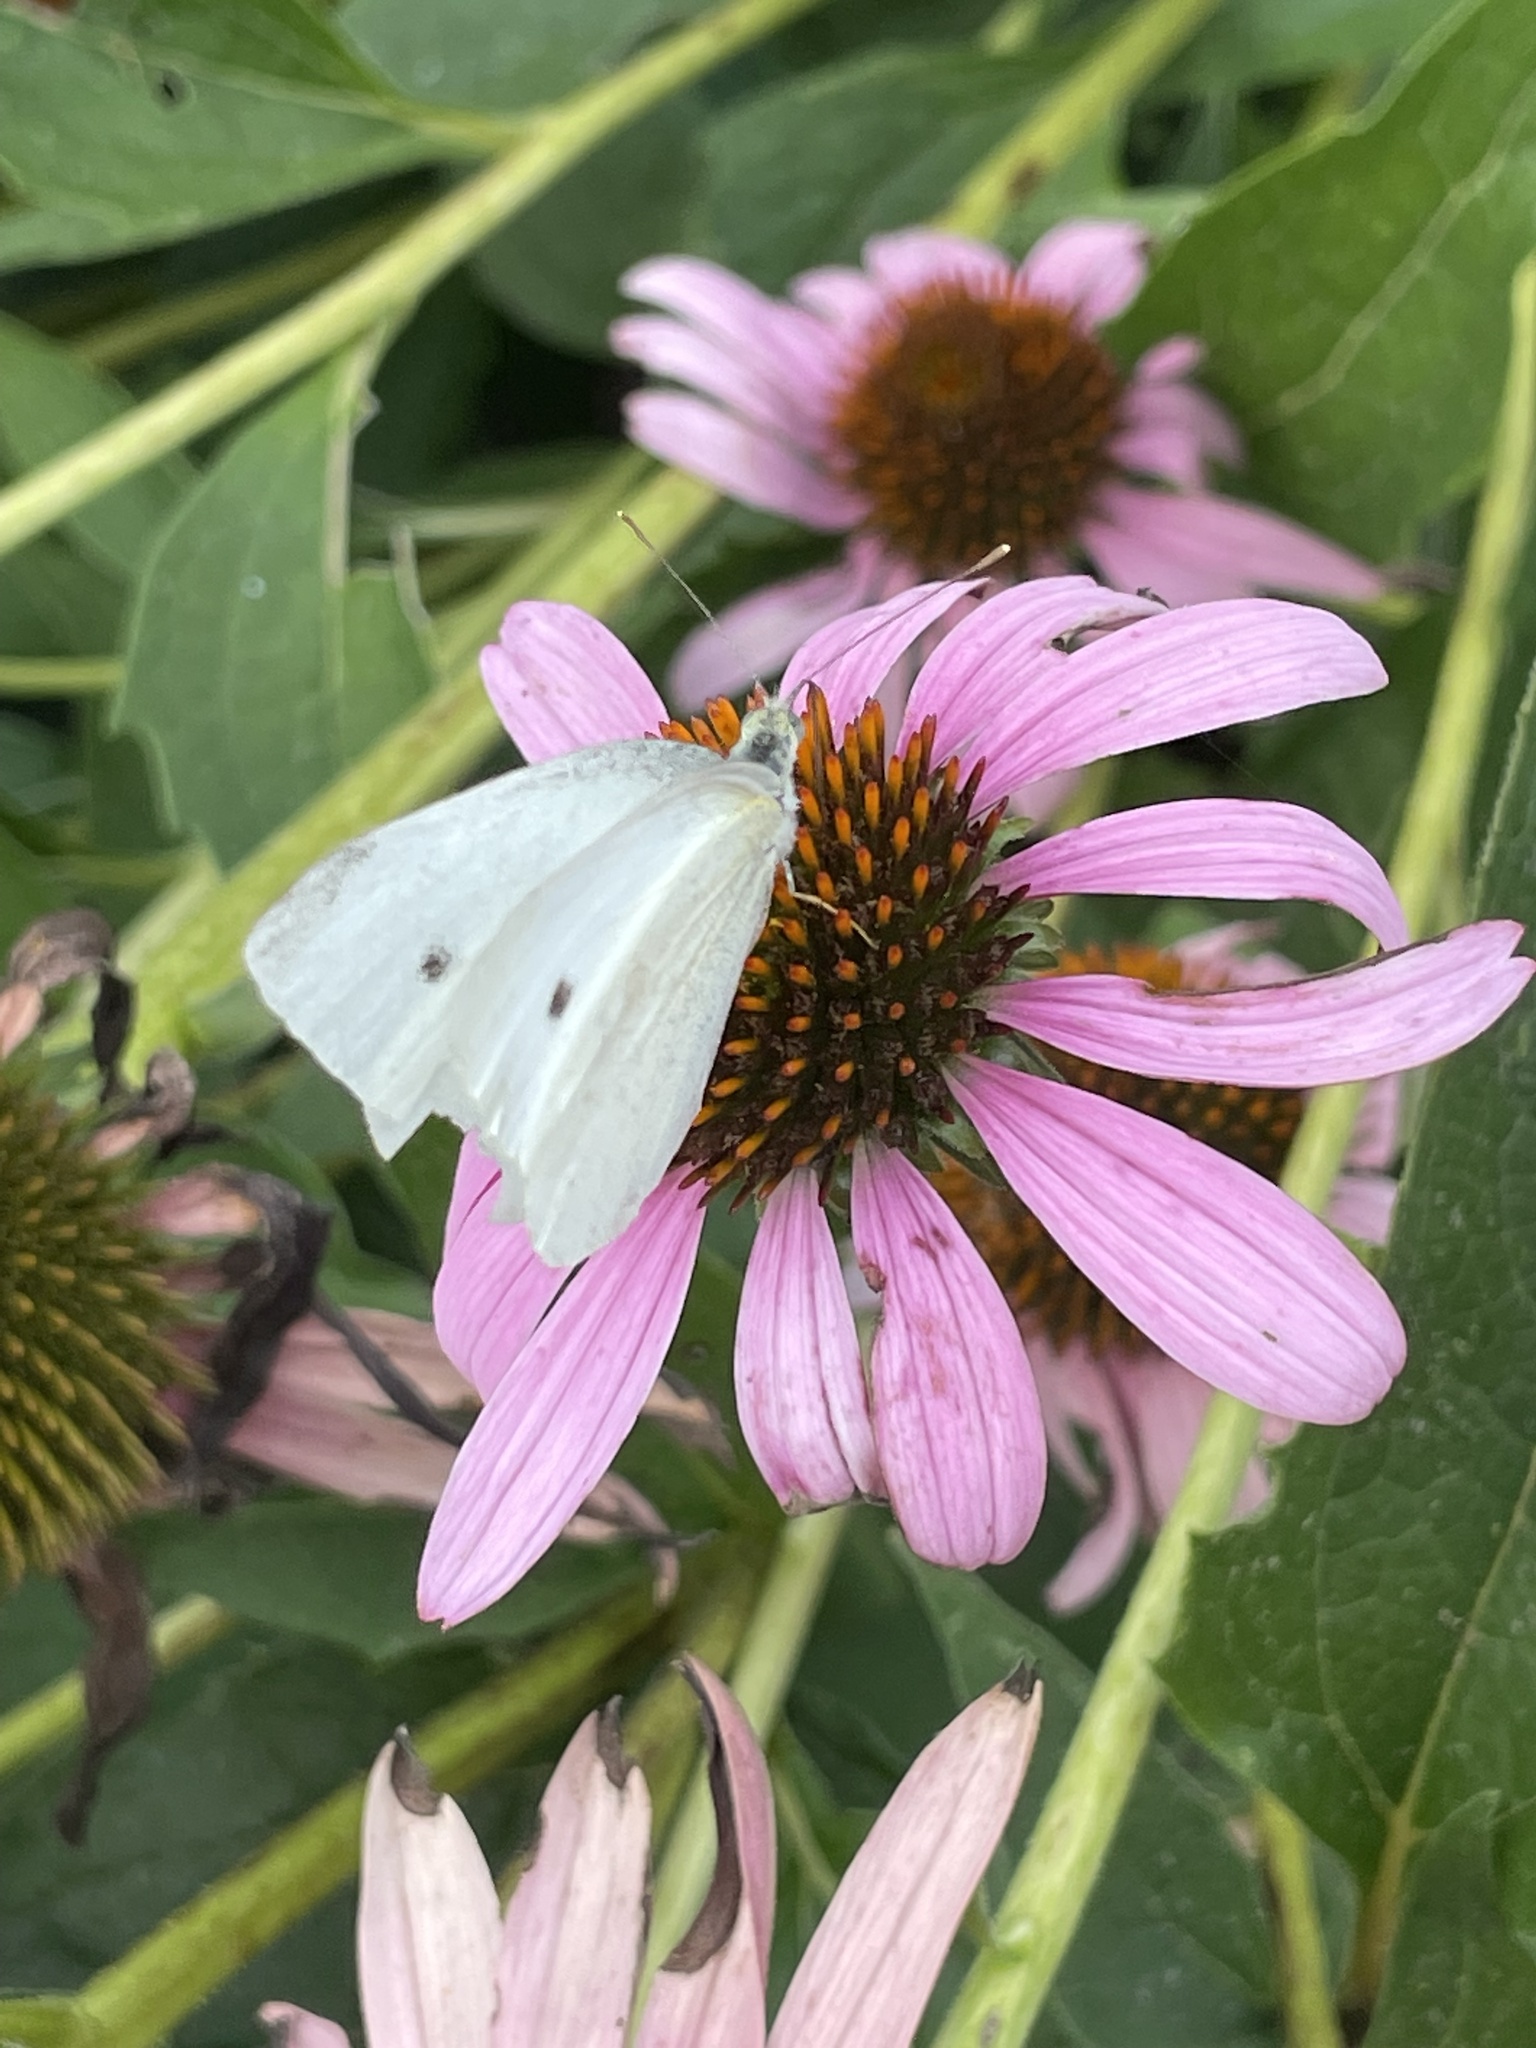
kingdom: Animalia
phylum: Arthropoda
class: Insecta
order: Lepidoptera
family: Pieridae
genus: Pieris
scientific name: Pieris rapae
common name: Small white
